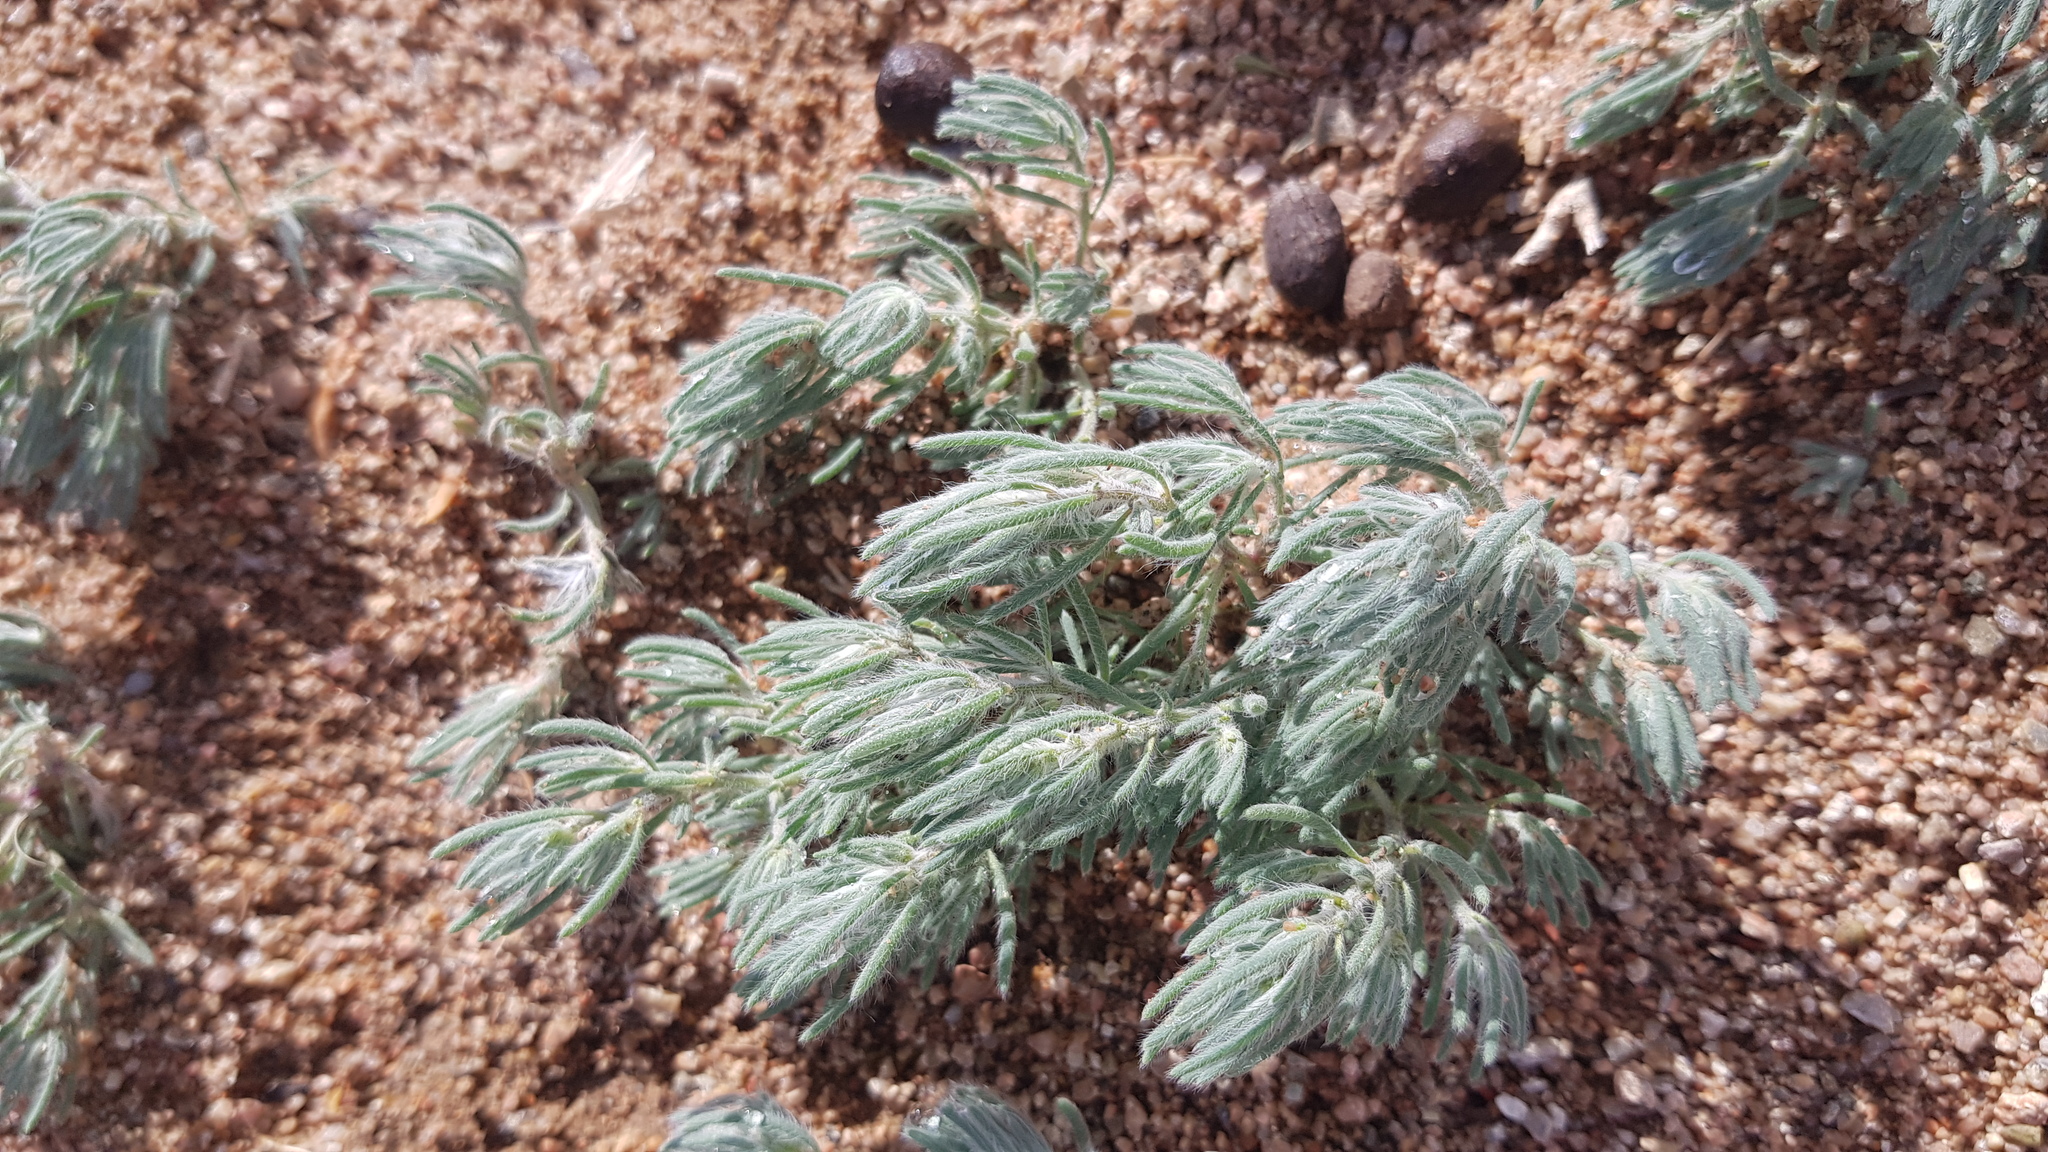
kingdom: Plantae
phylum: Tracheophyta
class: Magnoliopsida
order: Caryophyllales
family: Amaranthaceae
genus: Bassia
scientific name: Bassia prostrata
